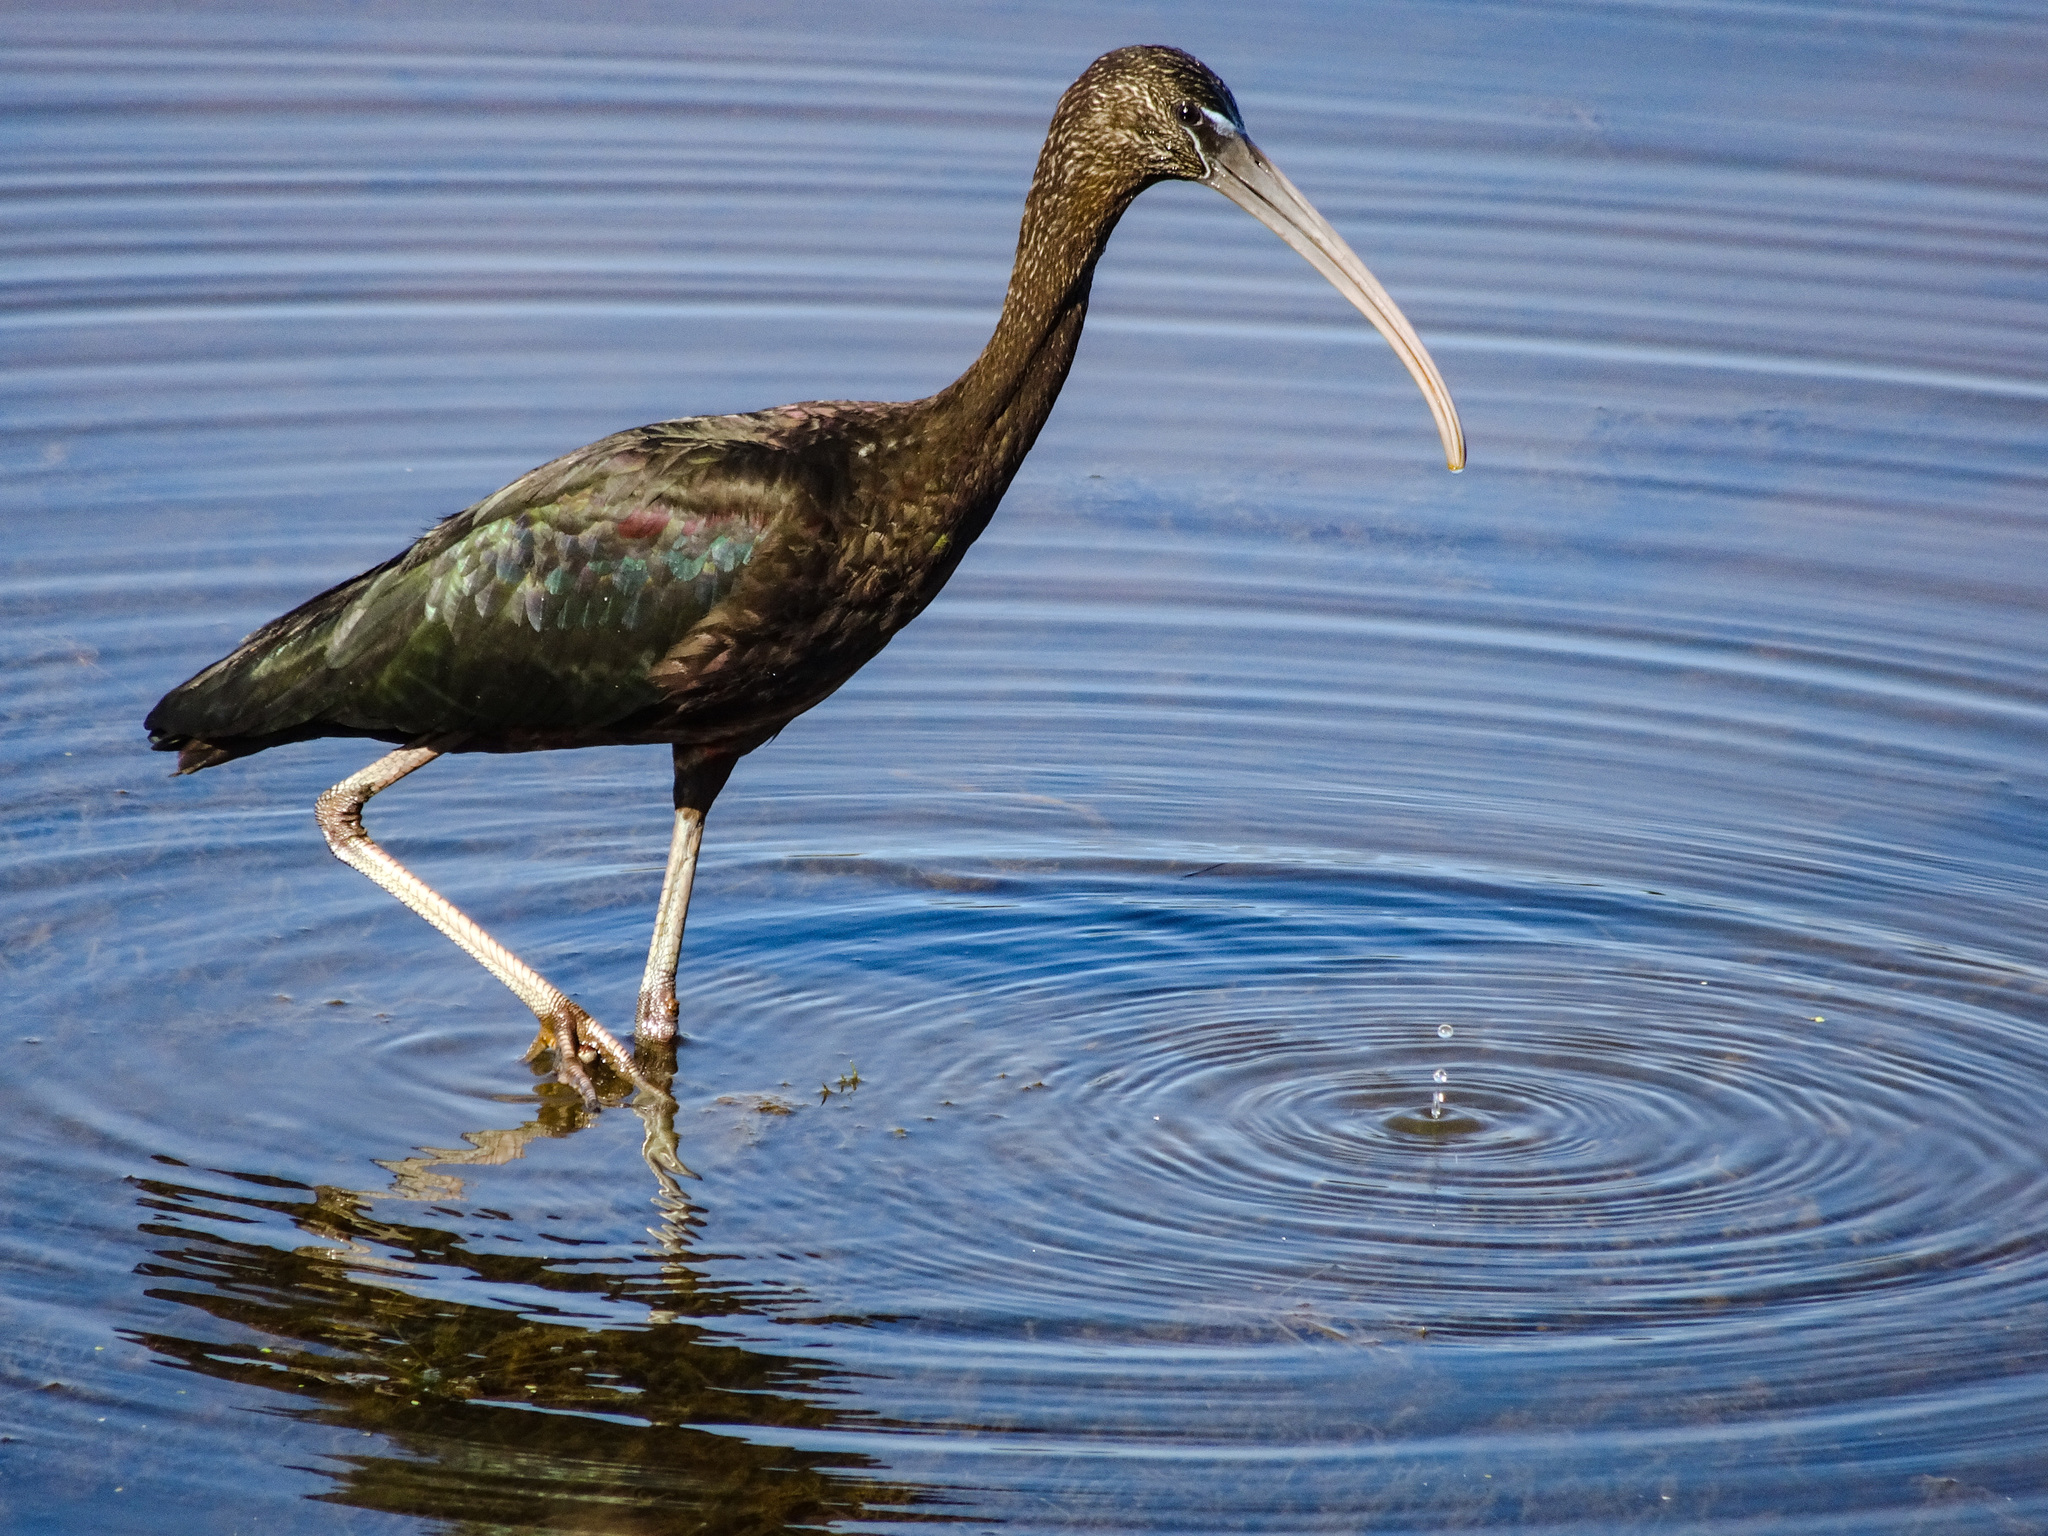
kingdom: Animalia
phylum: Chordata
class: Aves
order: Pelecaniformes
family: Threskiornithidae
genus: Plegadis
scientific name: Plegadis falcinellus
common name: Glossy ibis
